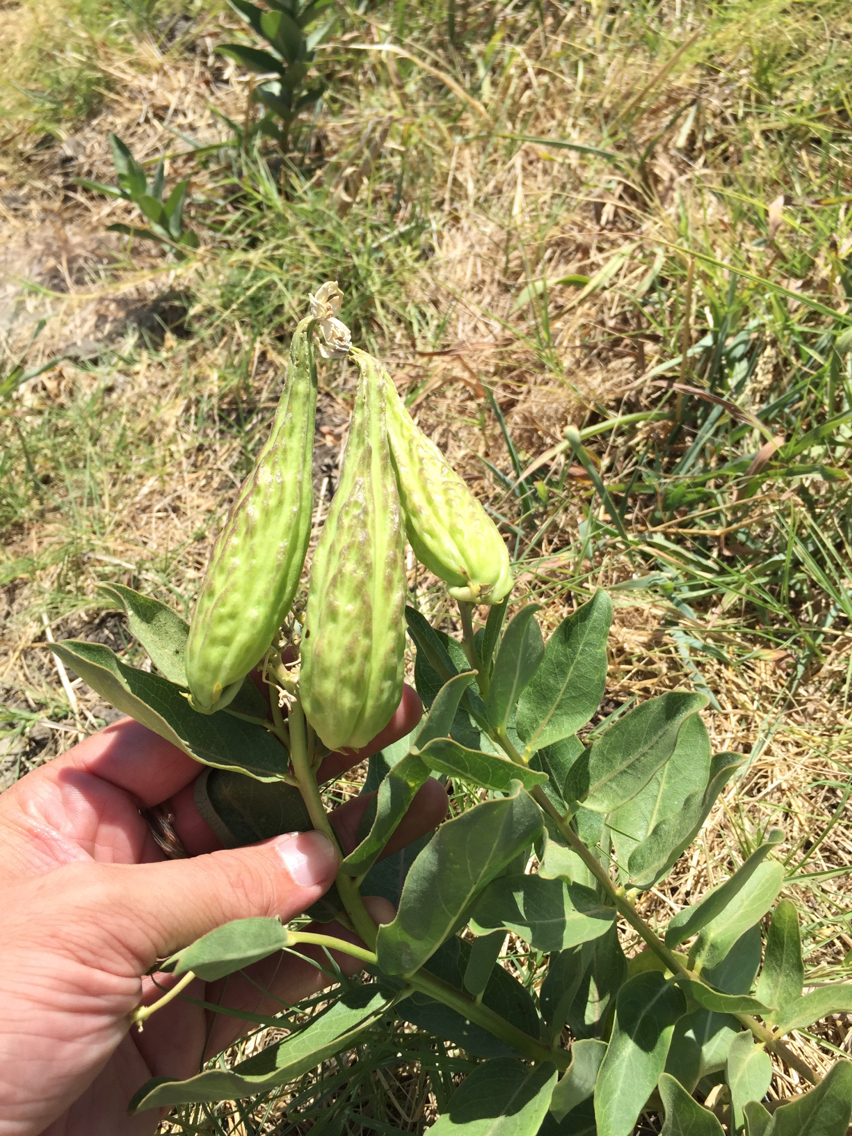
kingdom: Plantae
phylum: Tracheophyta
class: Magnoliopsida
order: Gentianales
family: Apocynaceae
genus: Asclepias
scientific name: Asclepias viridis
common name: Antelope-horns
